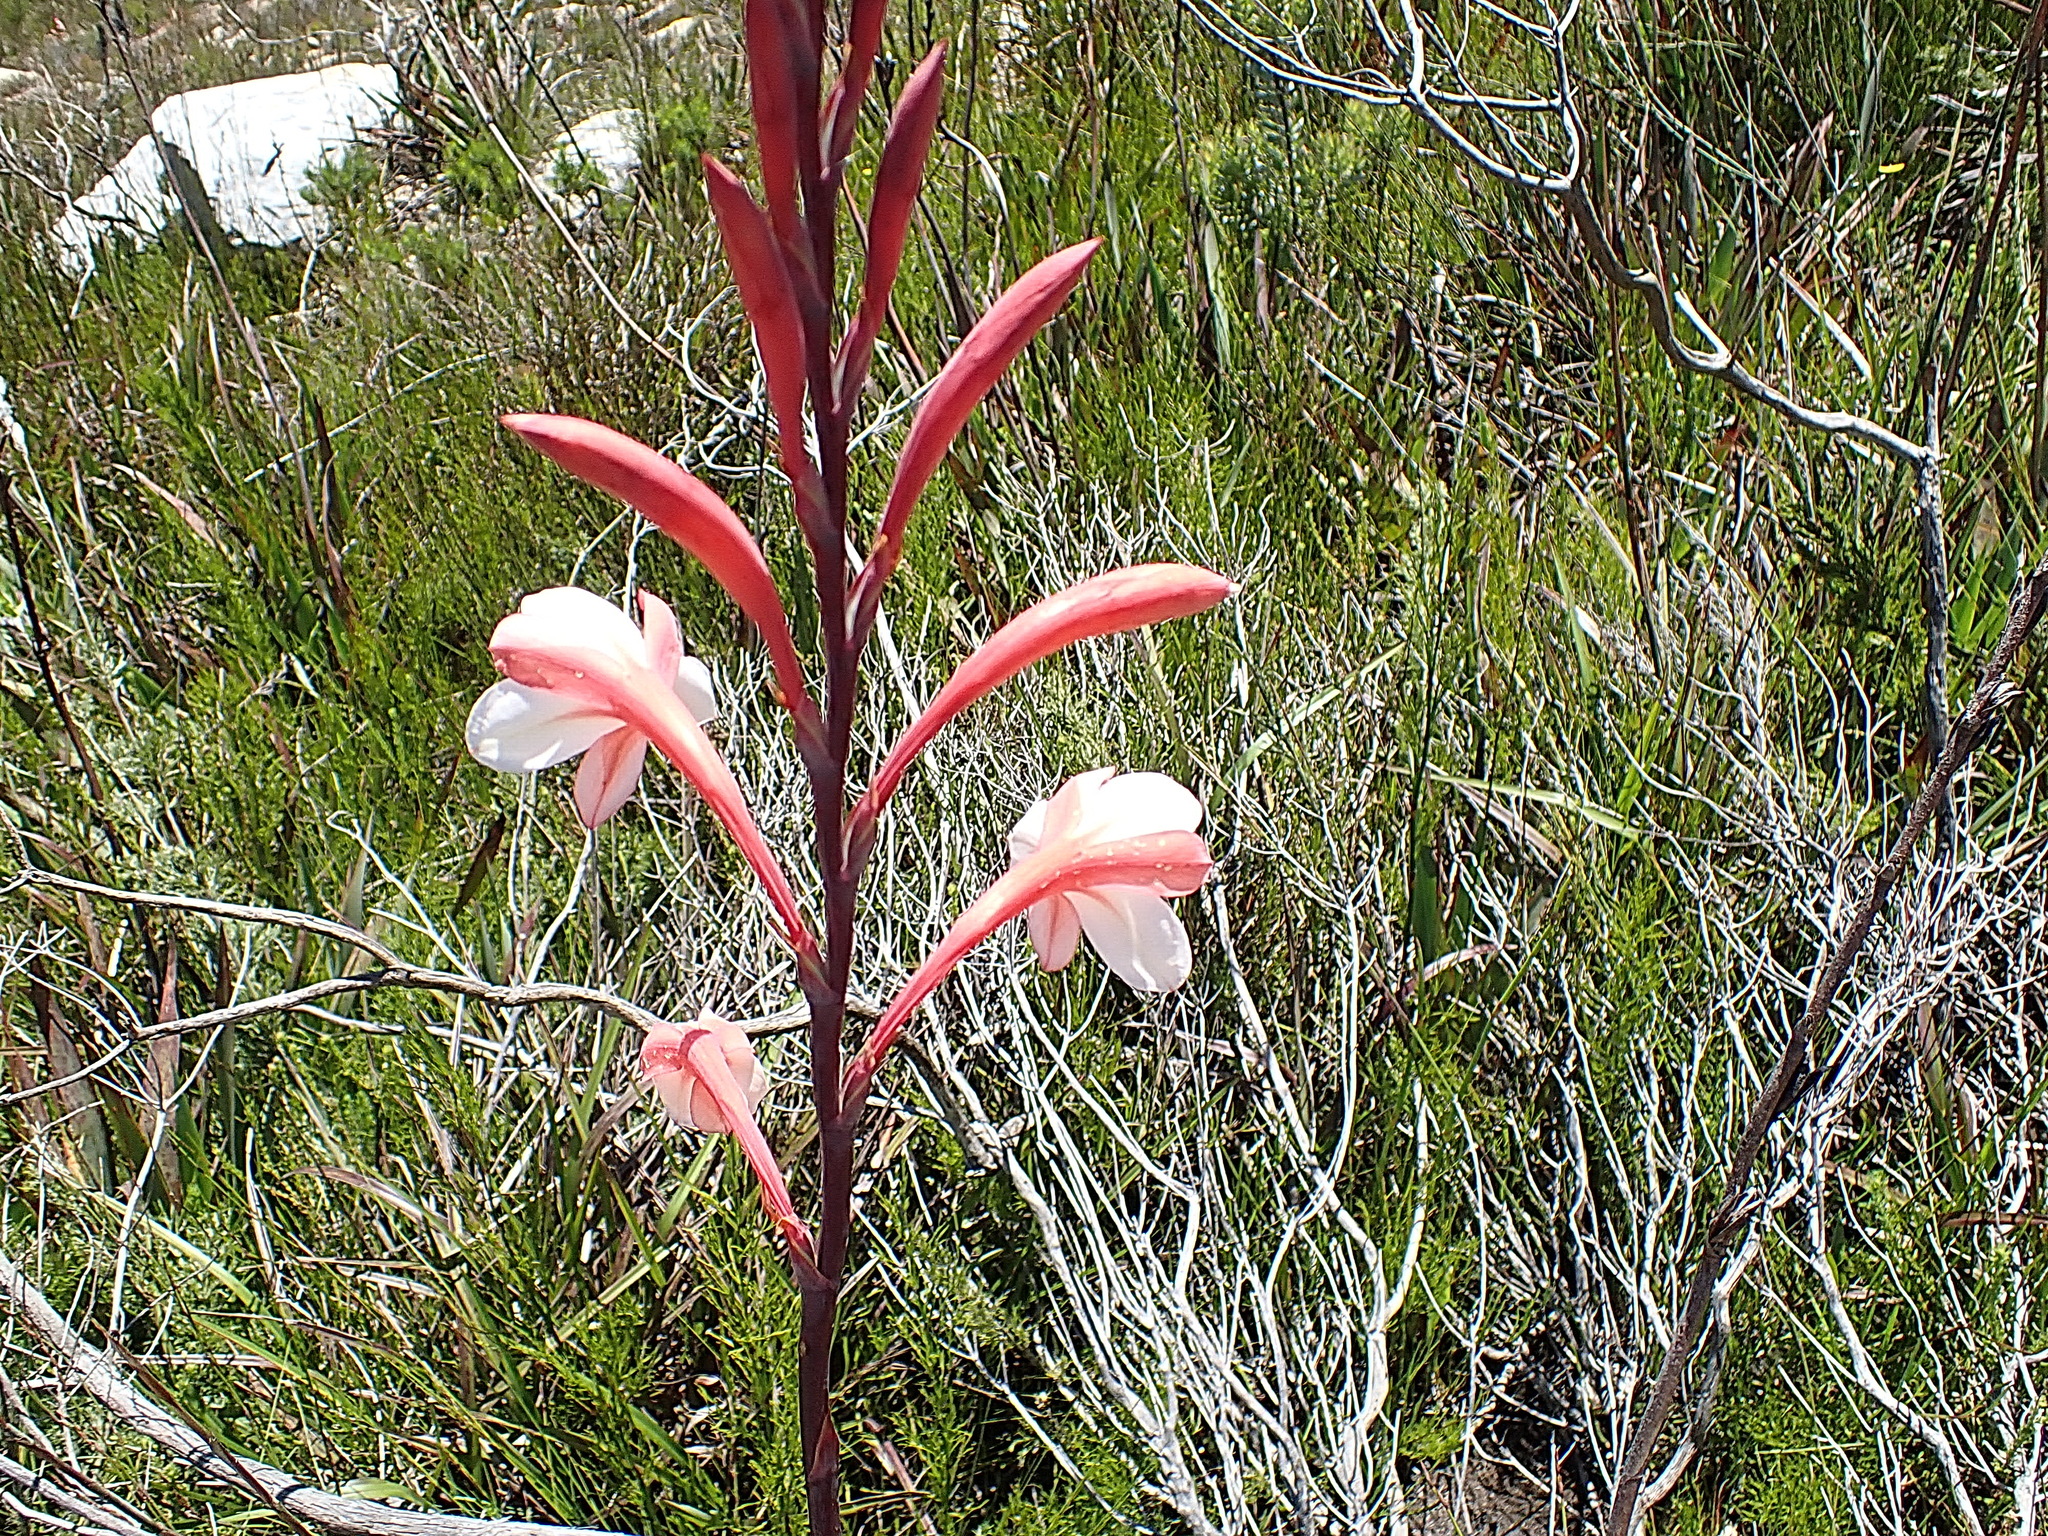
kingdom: Plantae
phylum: Tracheophyta
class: Liliopsida
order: Asparagales
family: Iridaceae
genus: Watsonia
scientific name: Watsonia fourcadei
